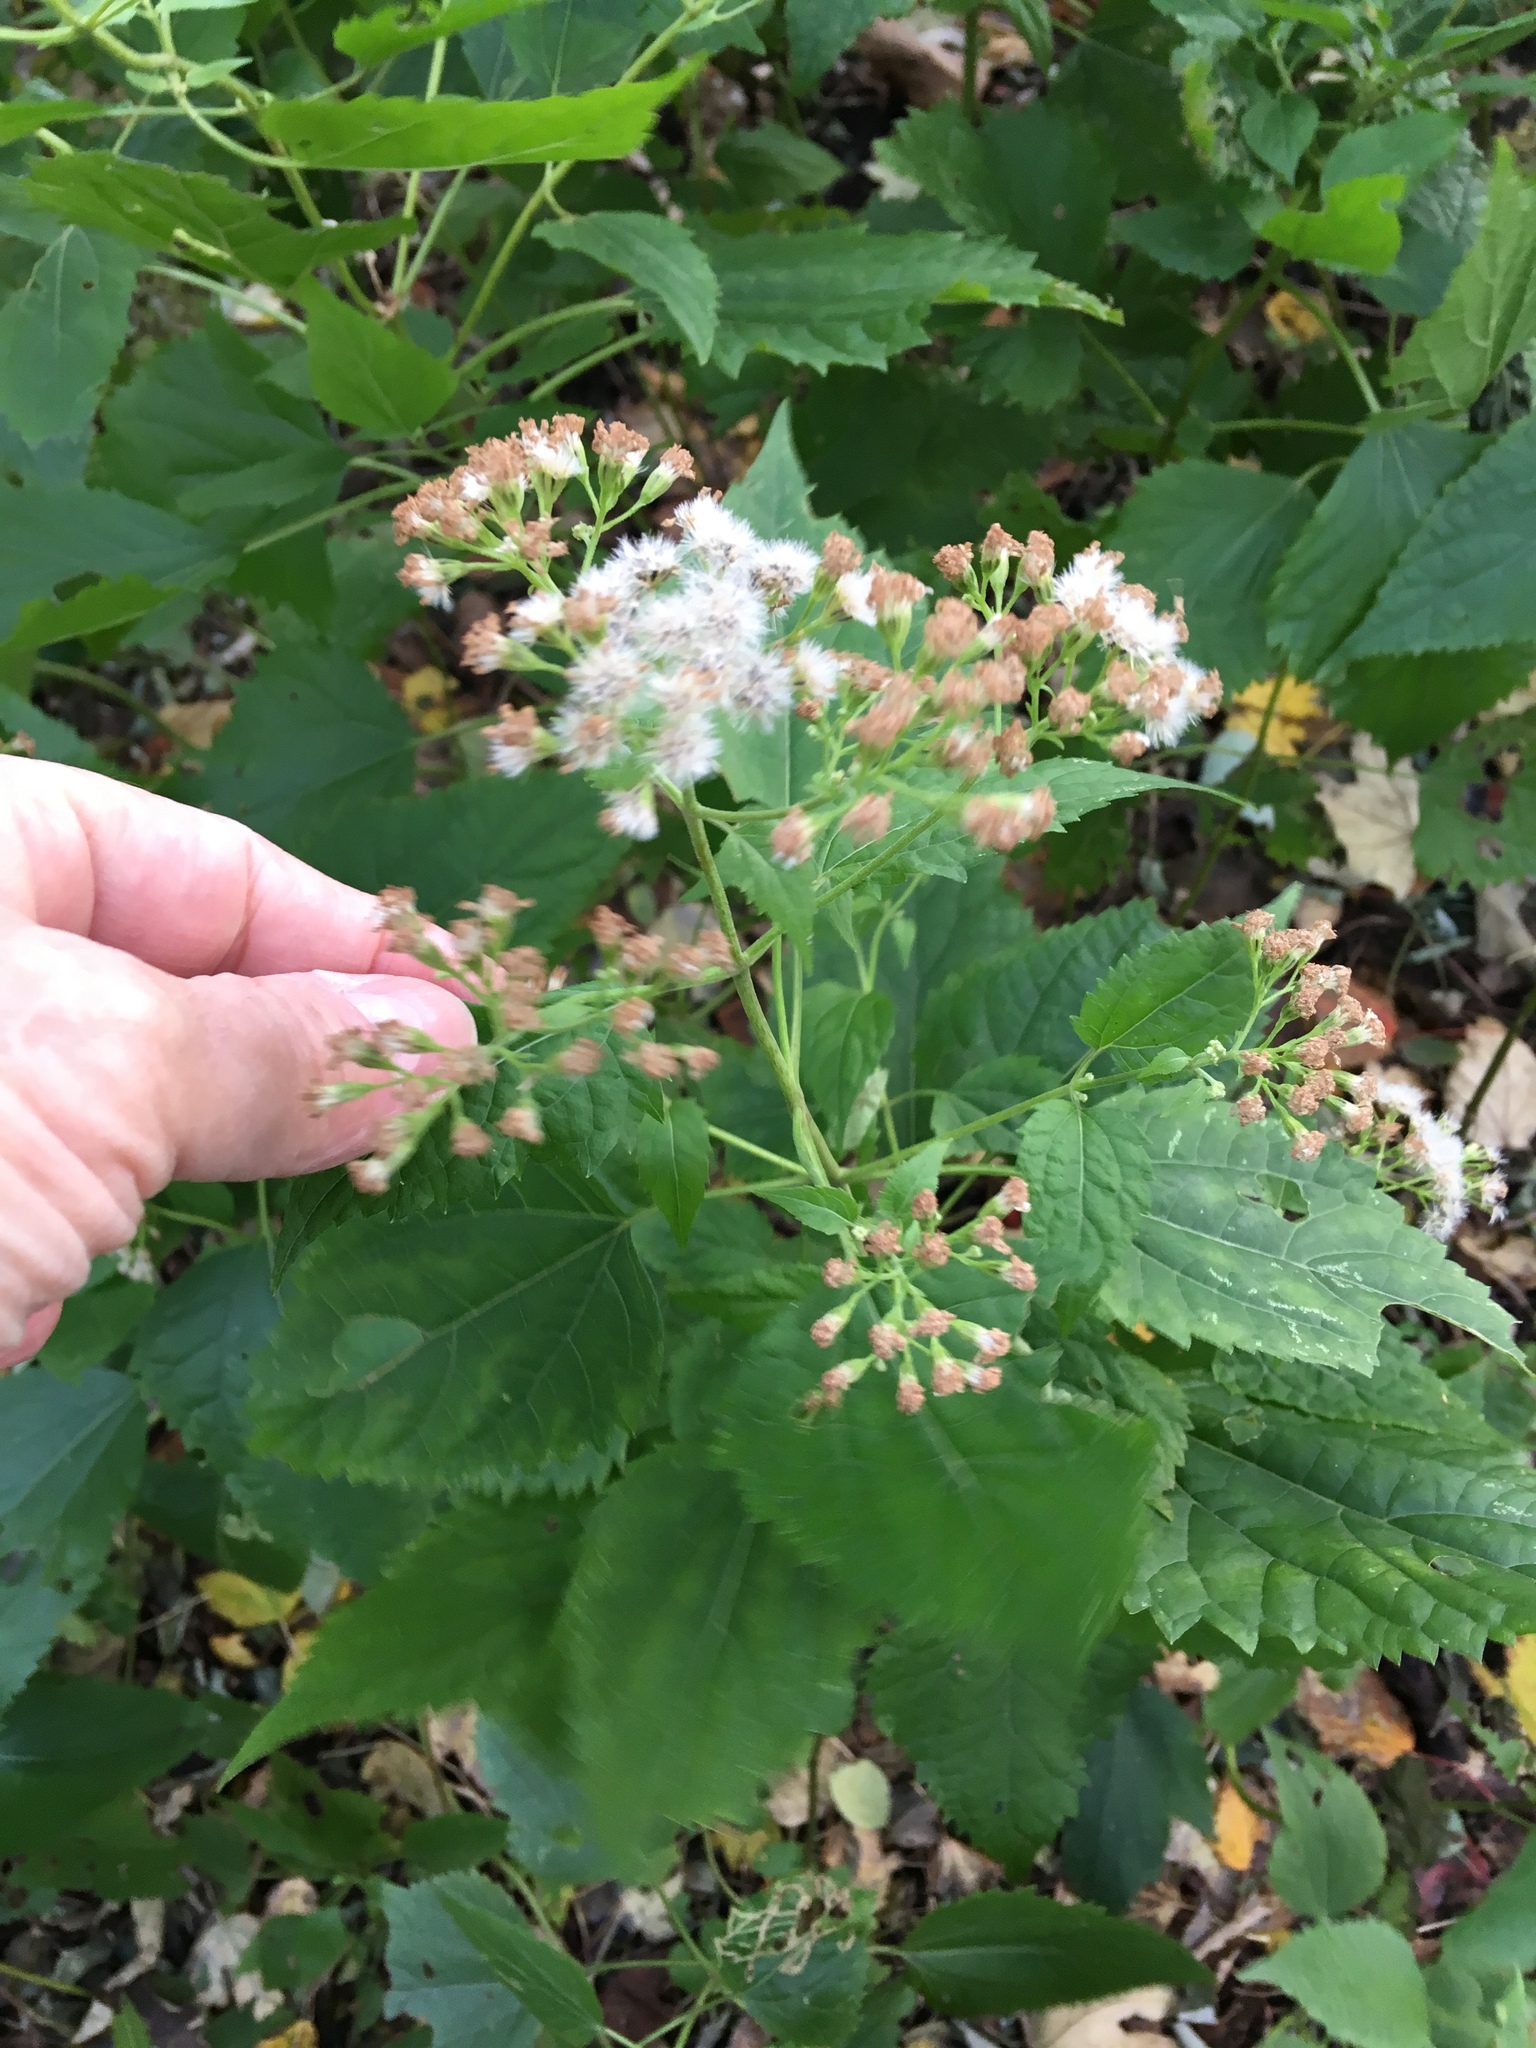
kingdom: Plantae
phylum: Tracheophyta
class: Magnoliopsida
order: Asterales
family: Asteraceae
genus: Ageratina
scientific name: Ageratina altissima
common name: White snakeroot
